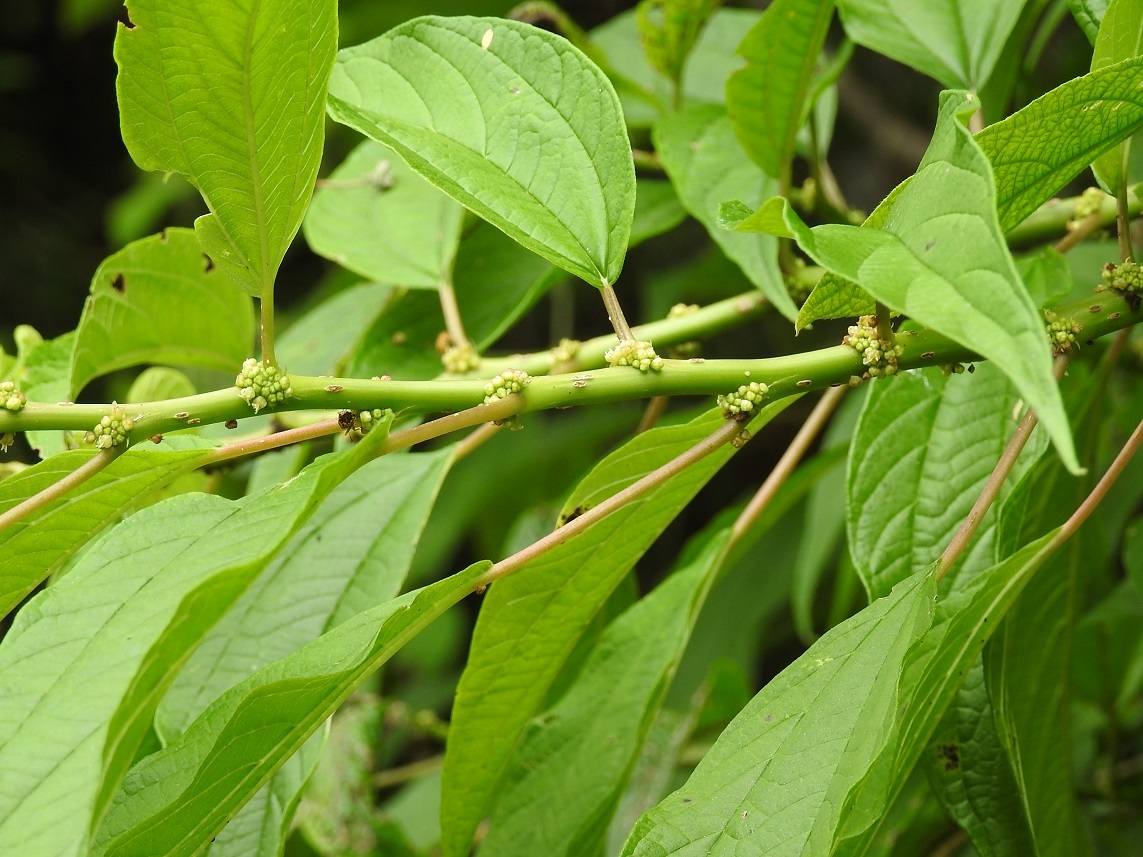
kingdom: Plantae
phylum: Tracheophyta
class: Magnoliopsida
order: Rosales
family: Urticaceae
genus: Pouzolzia
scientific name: Pouzolzia occidentalis
